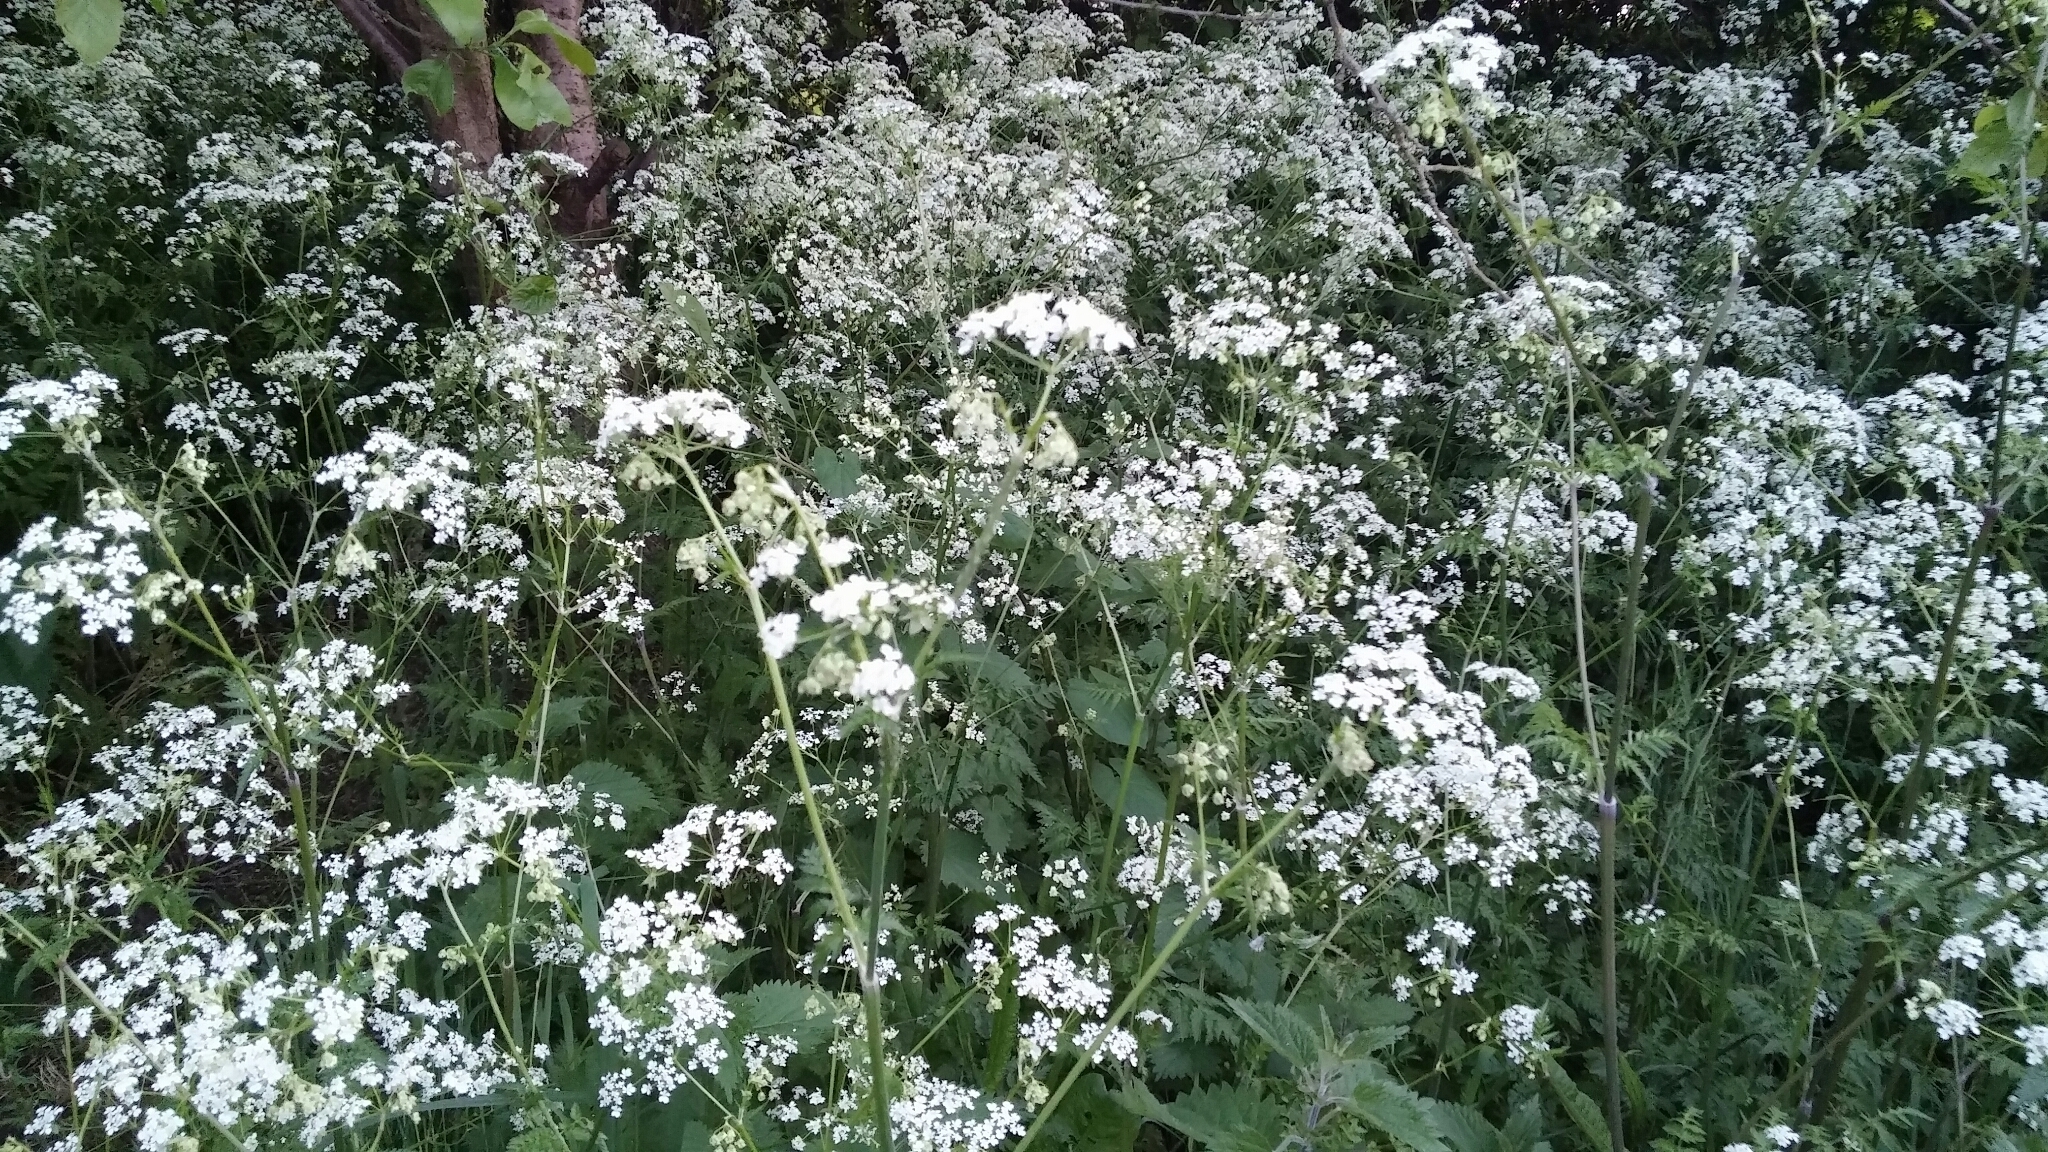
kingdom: Plantae
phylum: Tracheophyta
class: Magnoliopsida
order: Apiales
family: Apiaceae
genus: Anthriscus
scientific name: Anthriscus sylvestris
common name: Cow parsley
